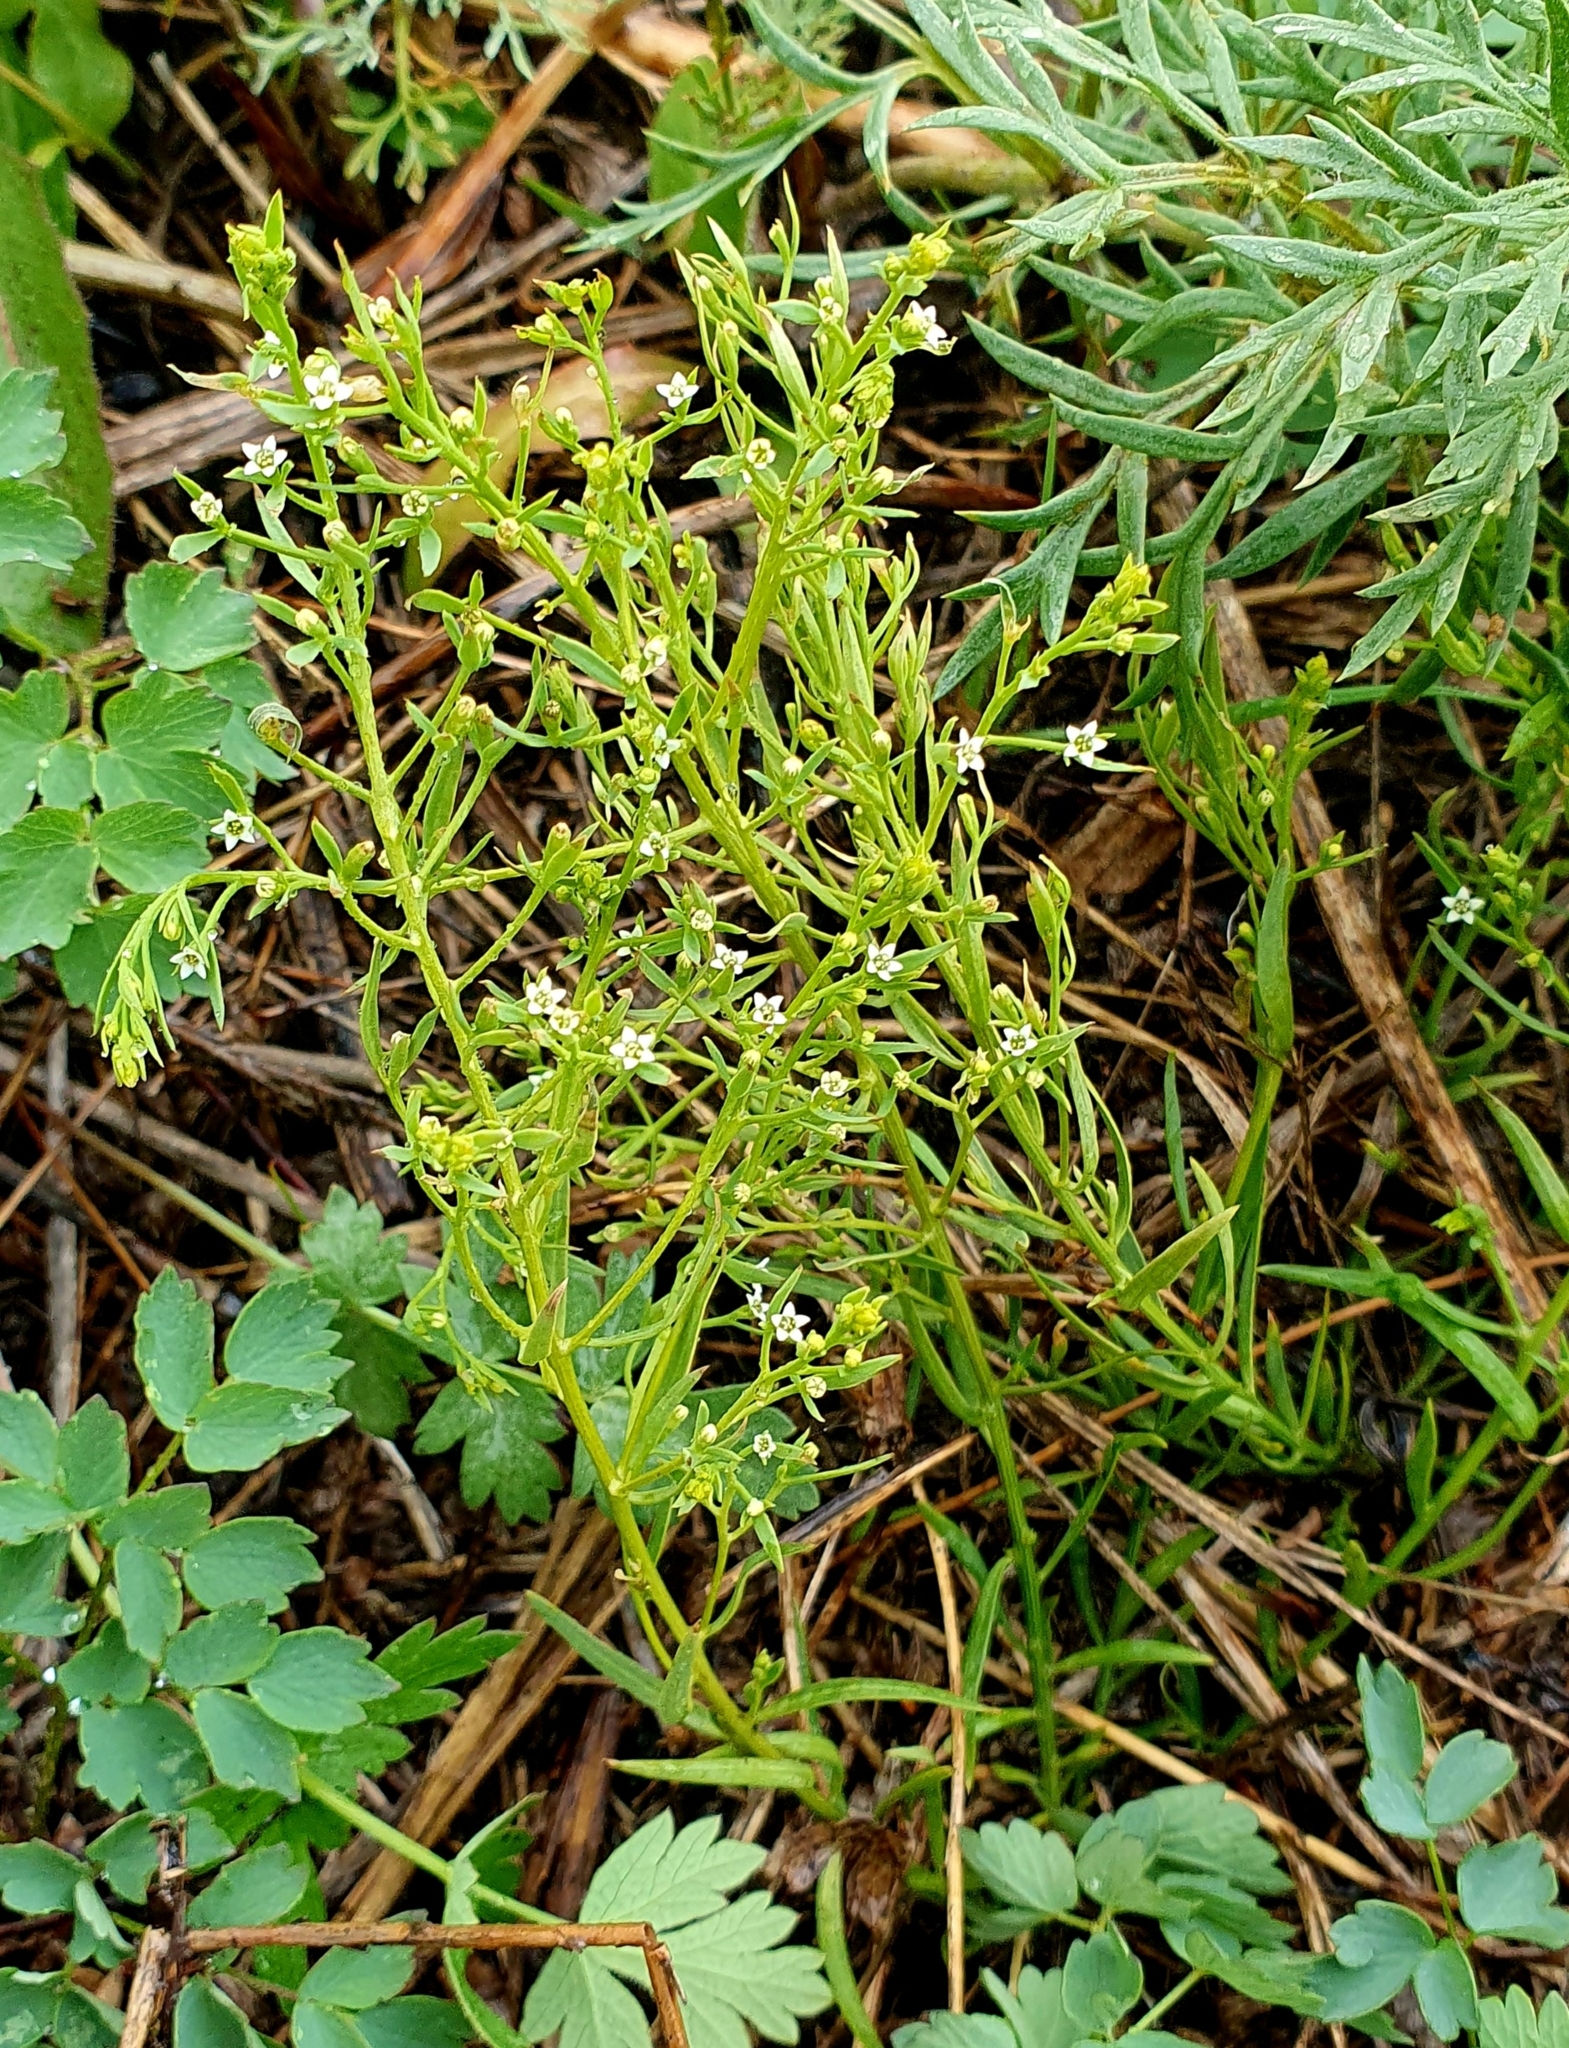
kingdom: Plantae
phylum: Tracheophyta
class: Magnoliopsida
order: Santalales
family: Thesiaceae
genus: Thesium
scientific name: Thesium ramosum
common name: Field thesium
